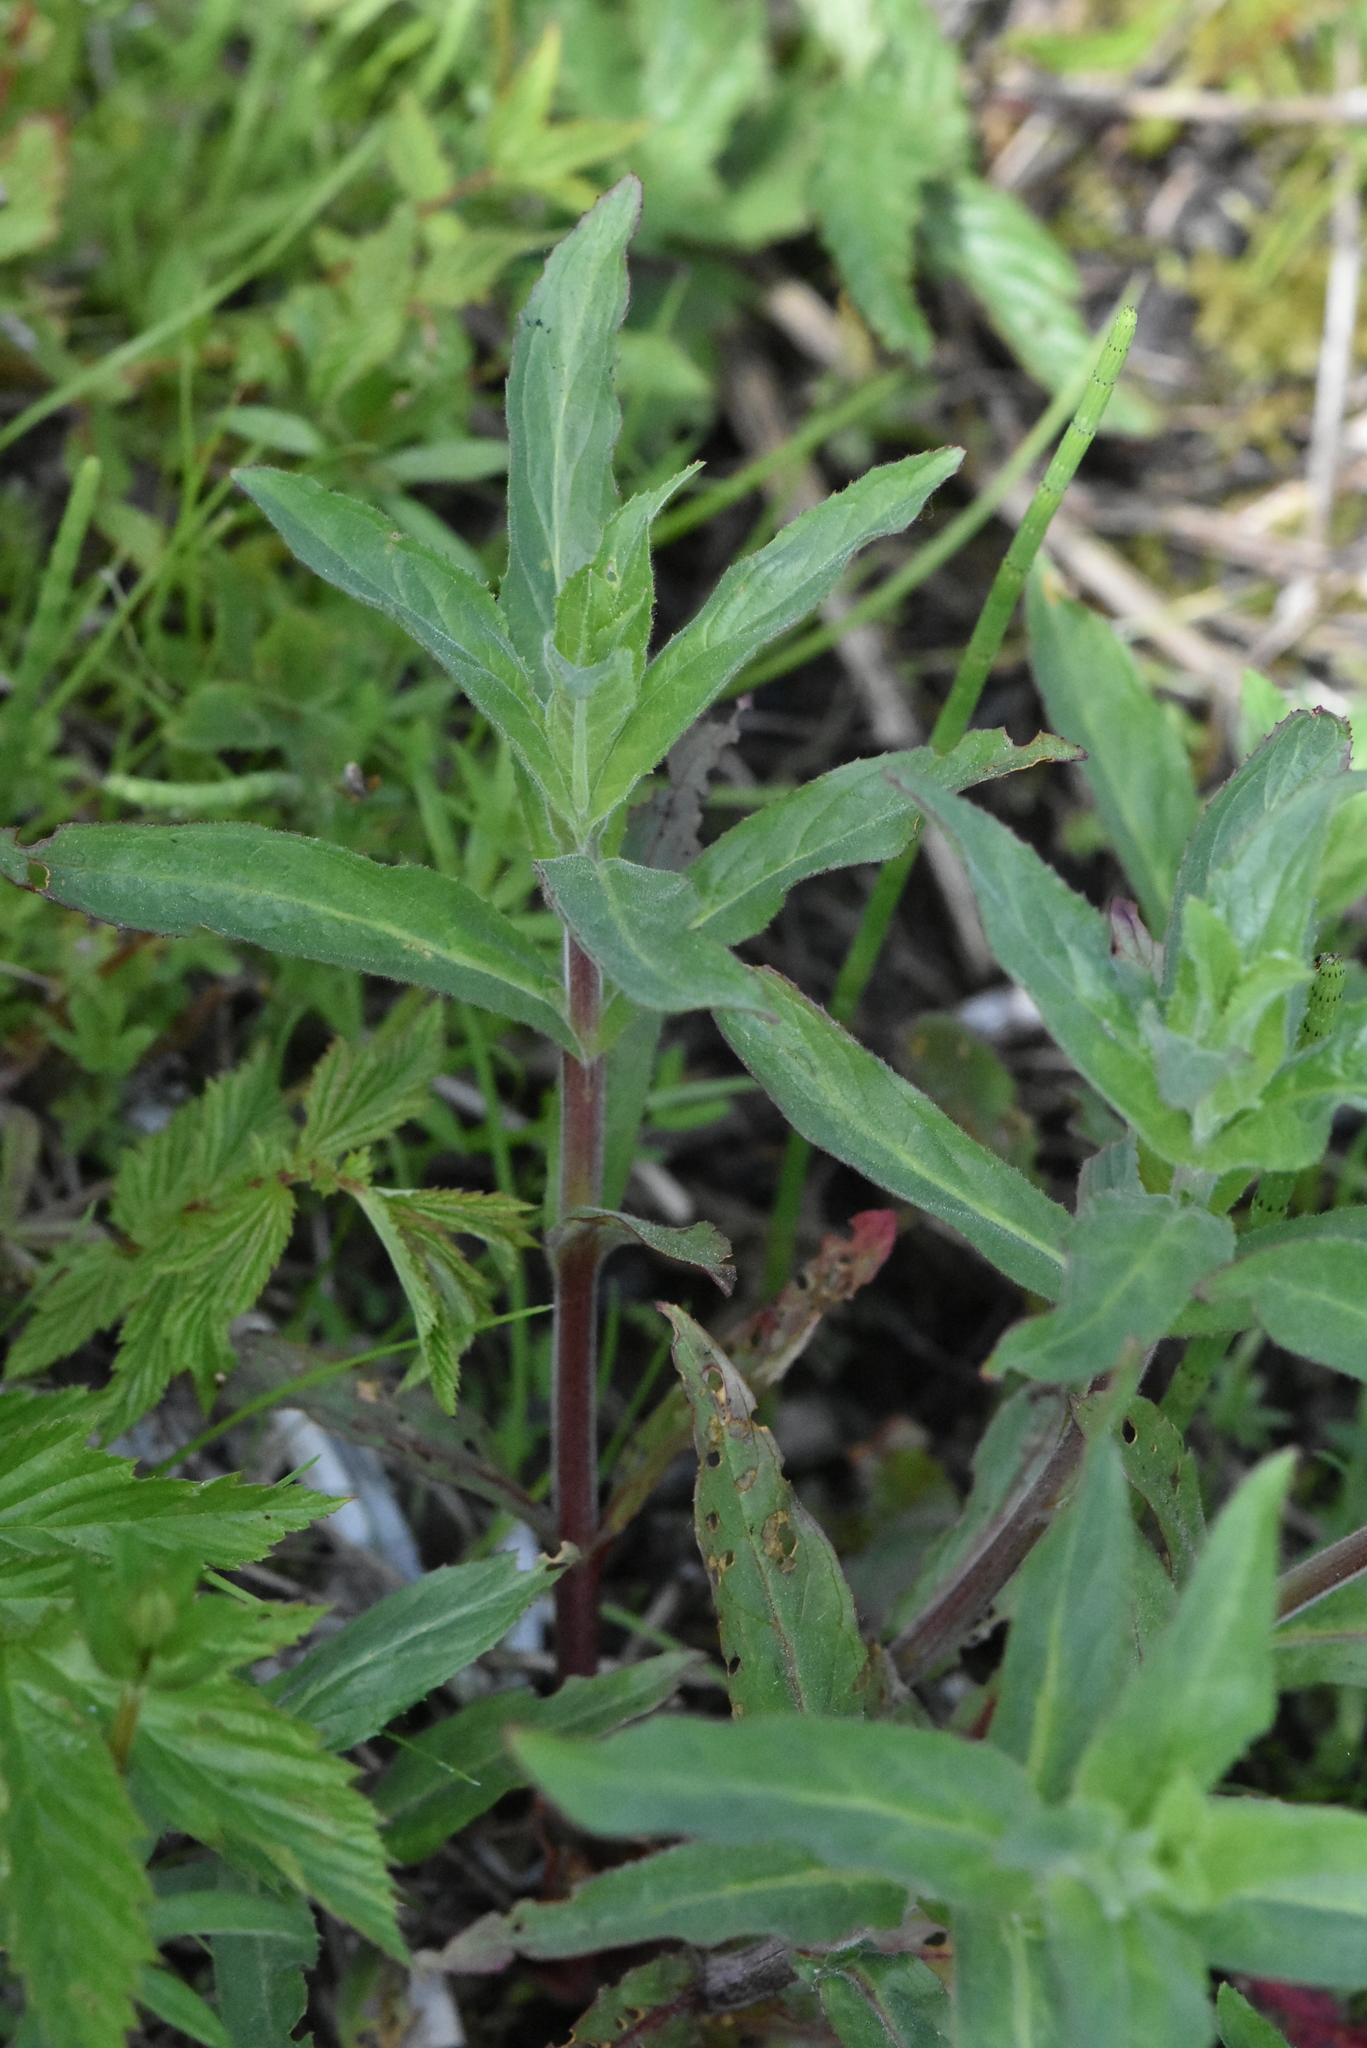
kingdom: Plantae
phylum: Tracheophyta
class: Magnoliopsida
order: Myrtales
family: Onagraceae
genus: Epilobium
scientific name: Epilobium hirsutum
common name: Great willowherb
